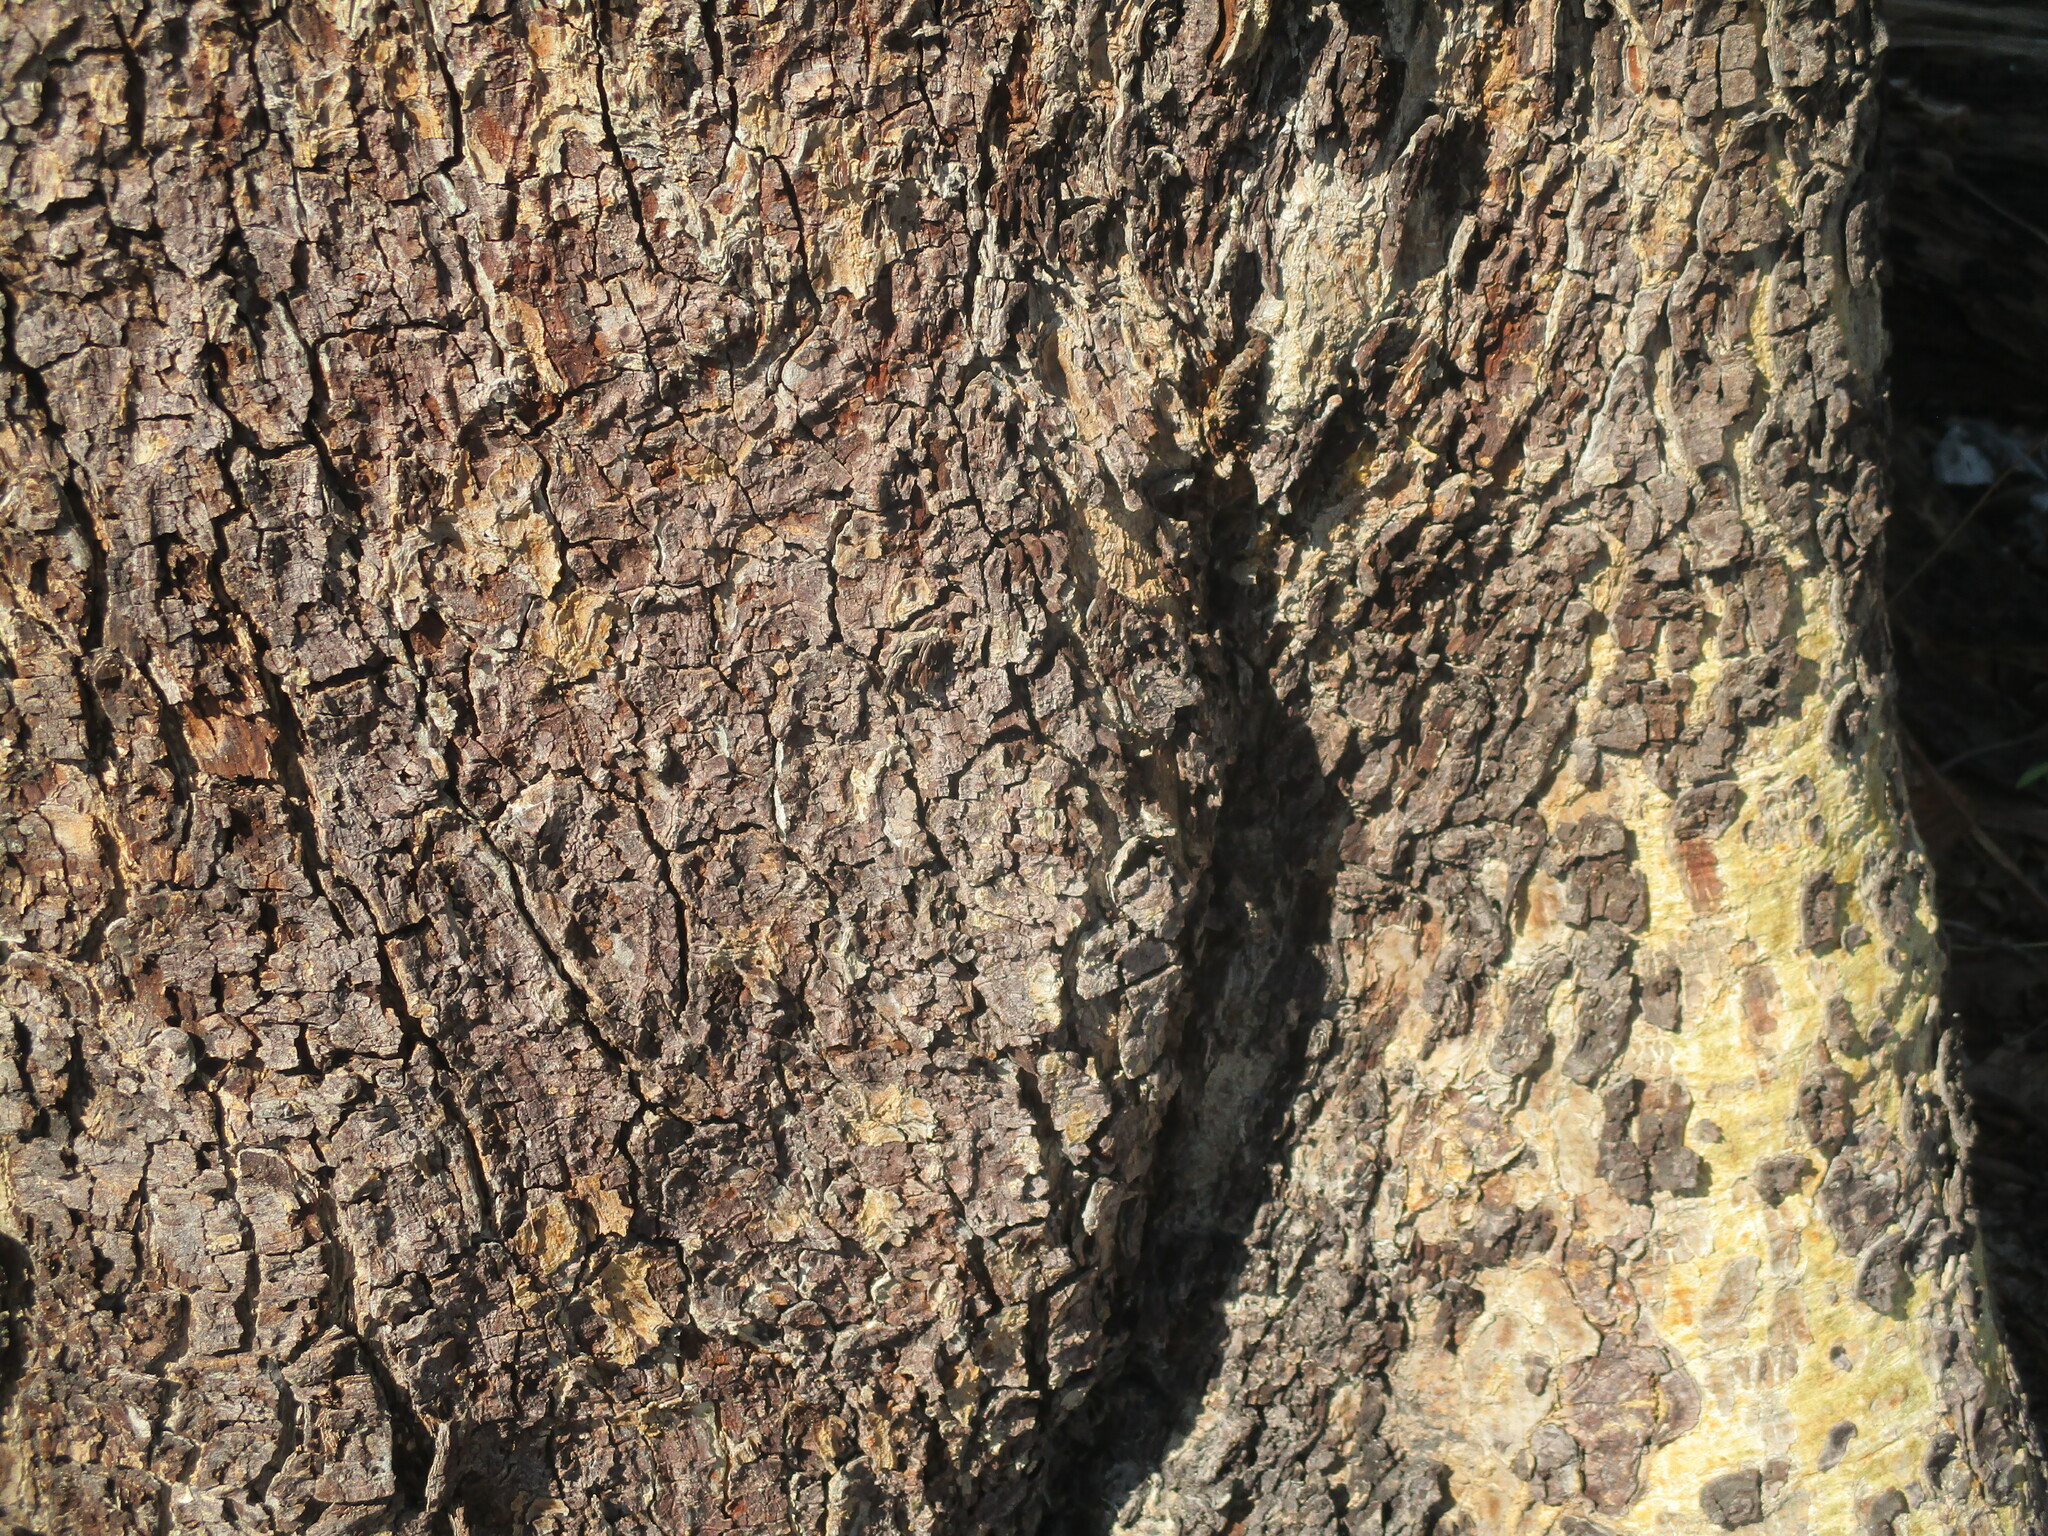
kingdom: Plantae
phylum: Tracheophyta
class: Magnoliopsida
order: Fabales
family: Fabaceae
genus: Baikiaea
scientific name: Baikiaea plurijuga
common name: Rhodesian-teak
